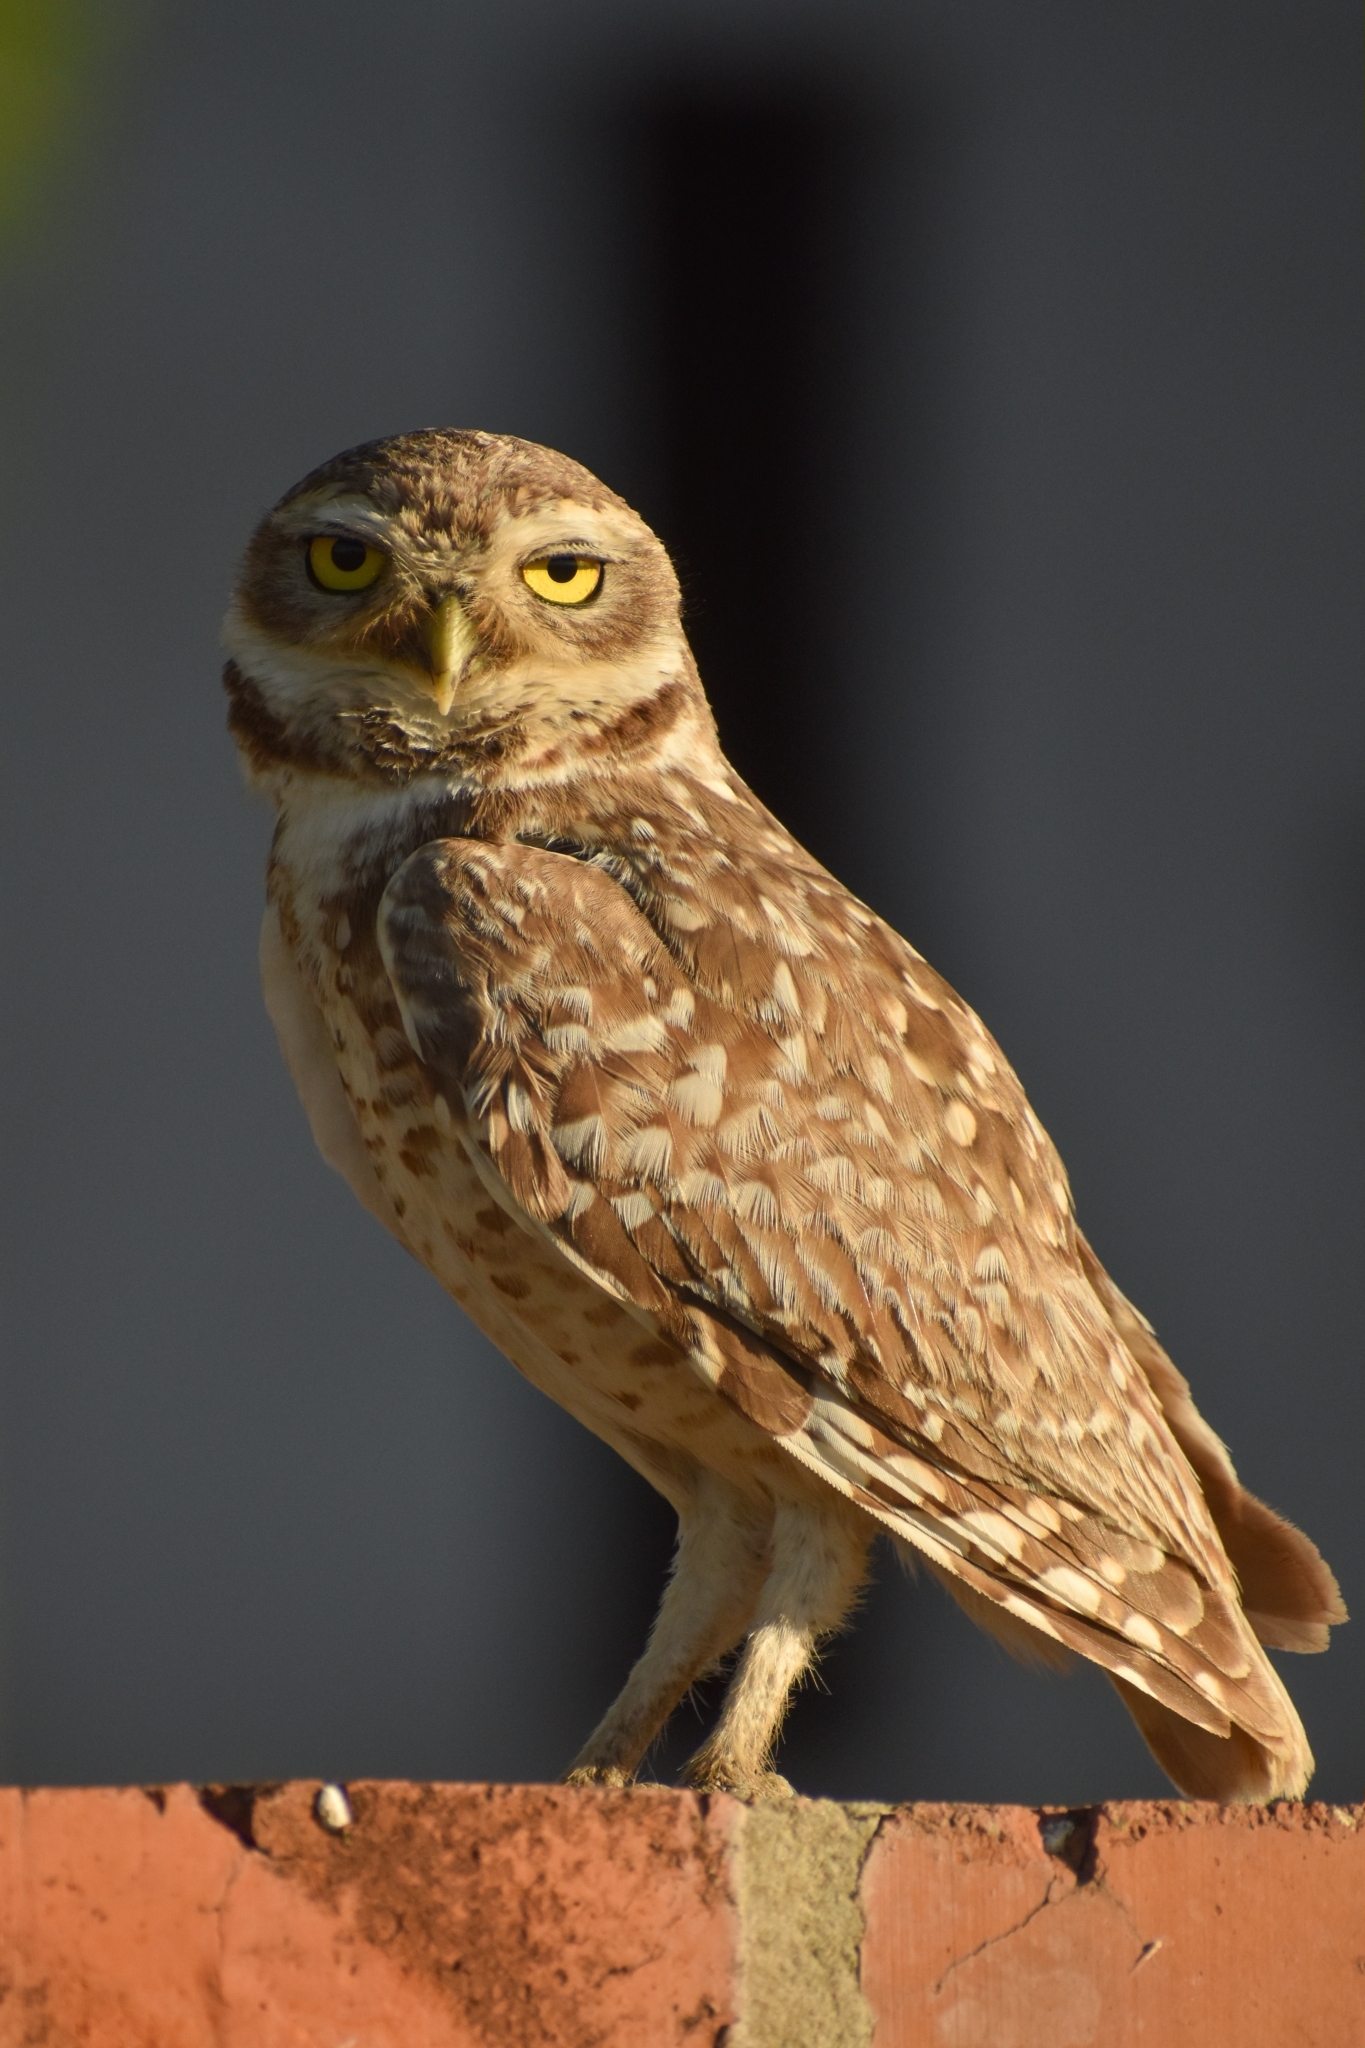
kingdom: Animalia
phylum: Chordata
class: Aves
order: Strigiformes
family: Strigidae
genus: Athene
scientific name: Athene cunicularia
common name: Burrowing owl
